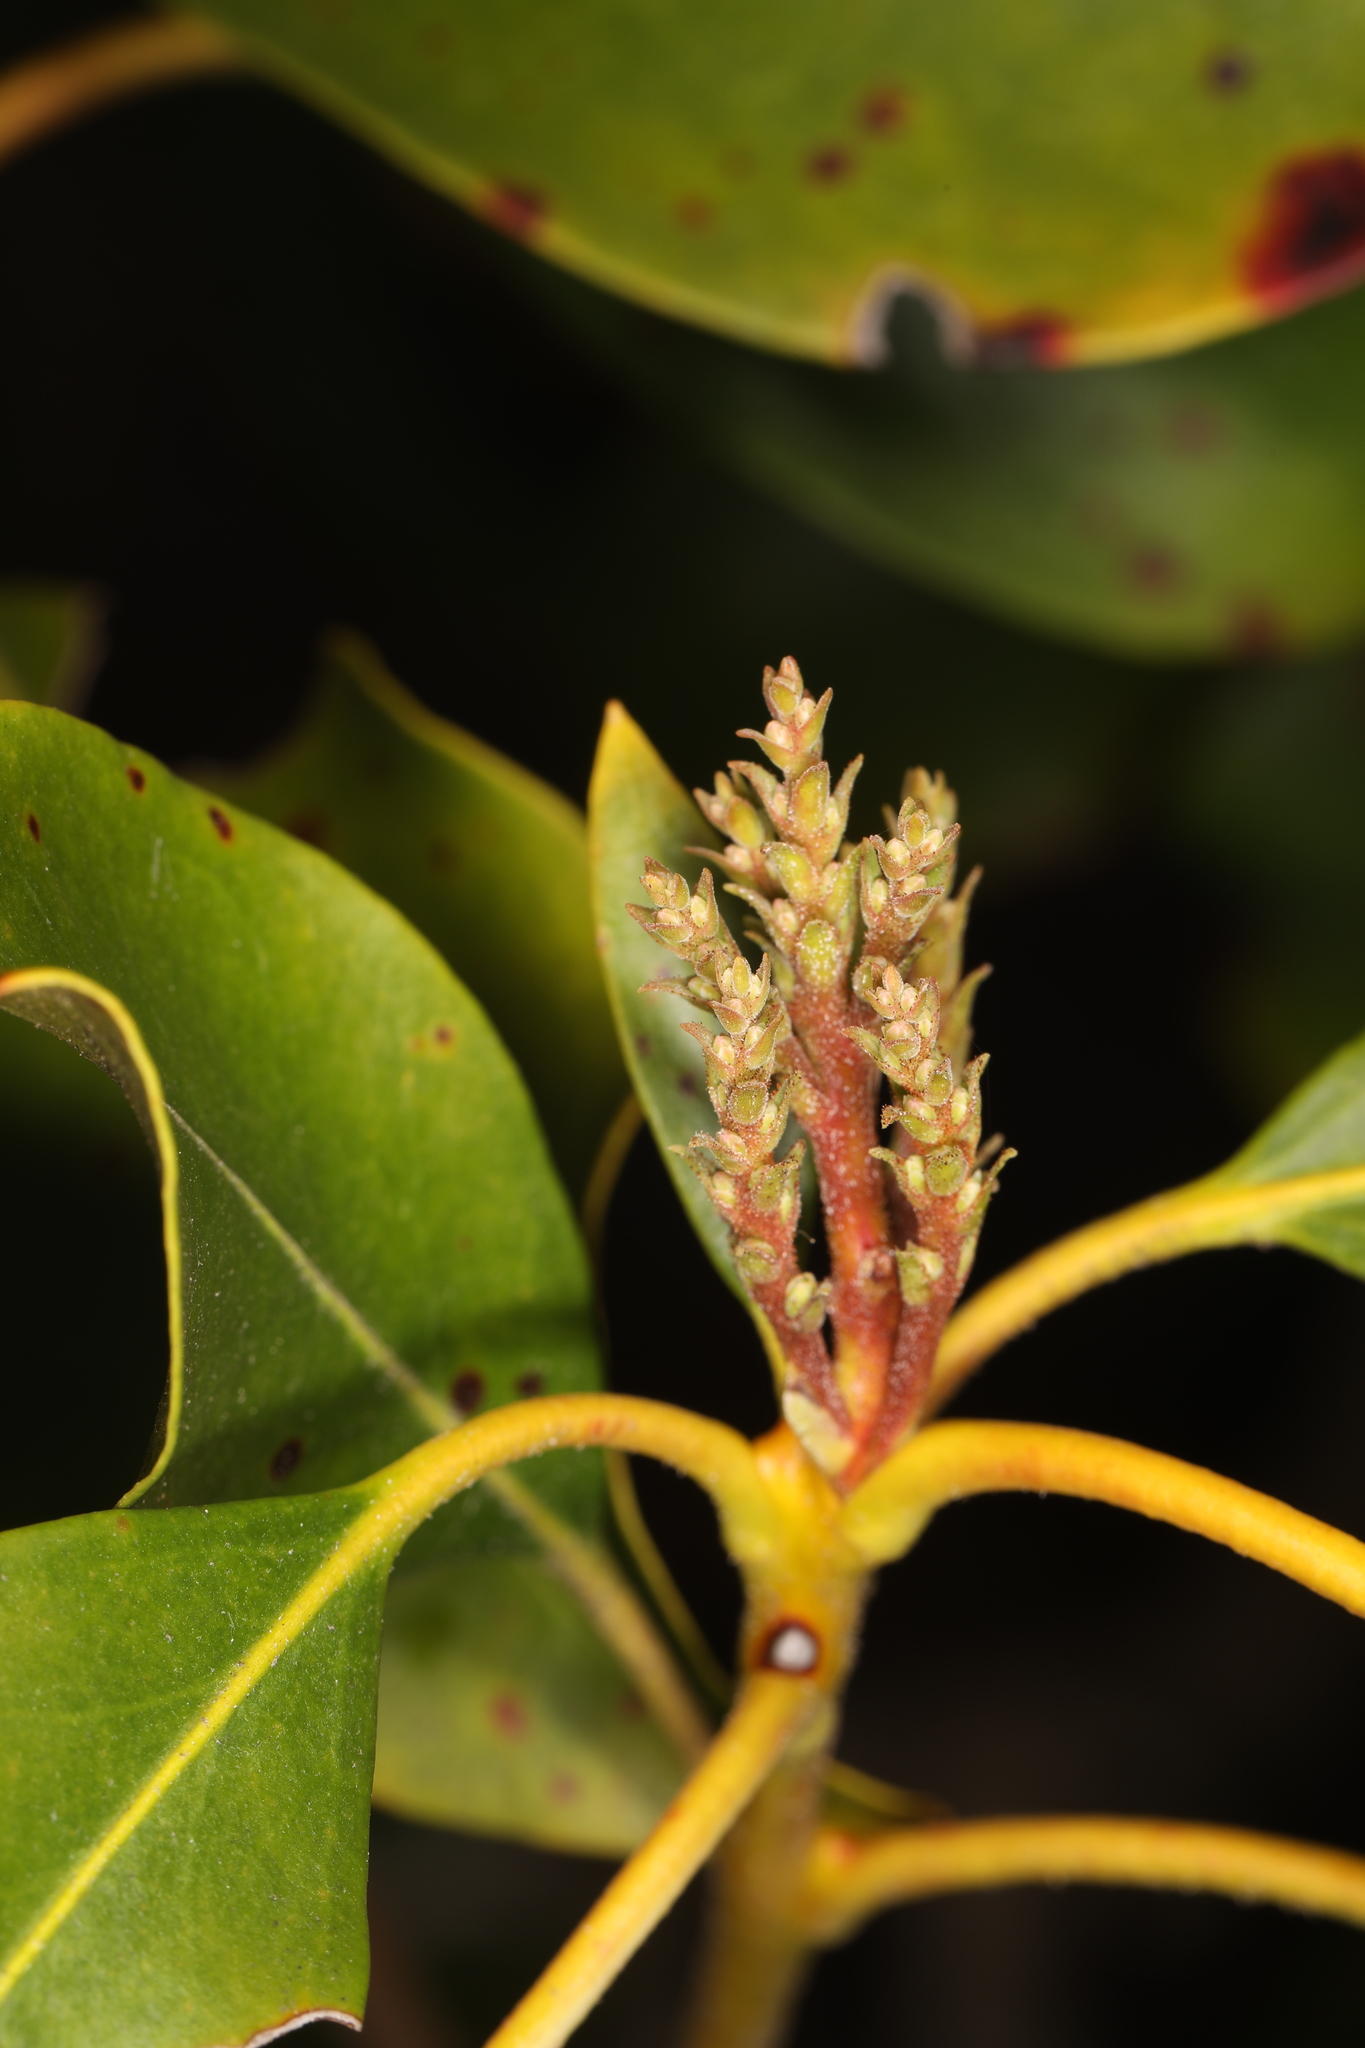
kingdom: Plantae
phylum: Tracheophyta
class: Magnoliopsida
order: Ericales
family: Ericaceae
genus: Kalmia
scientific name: Kalmia latifolia
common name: Mountain-laurel
